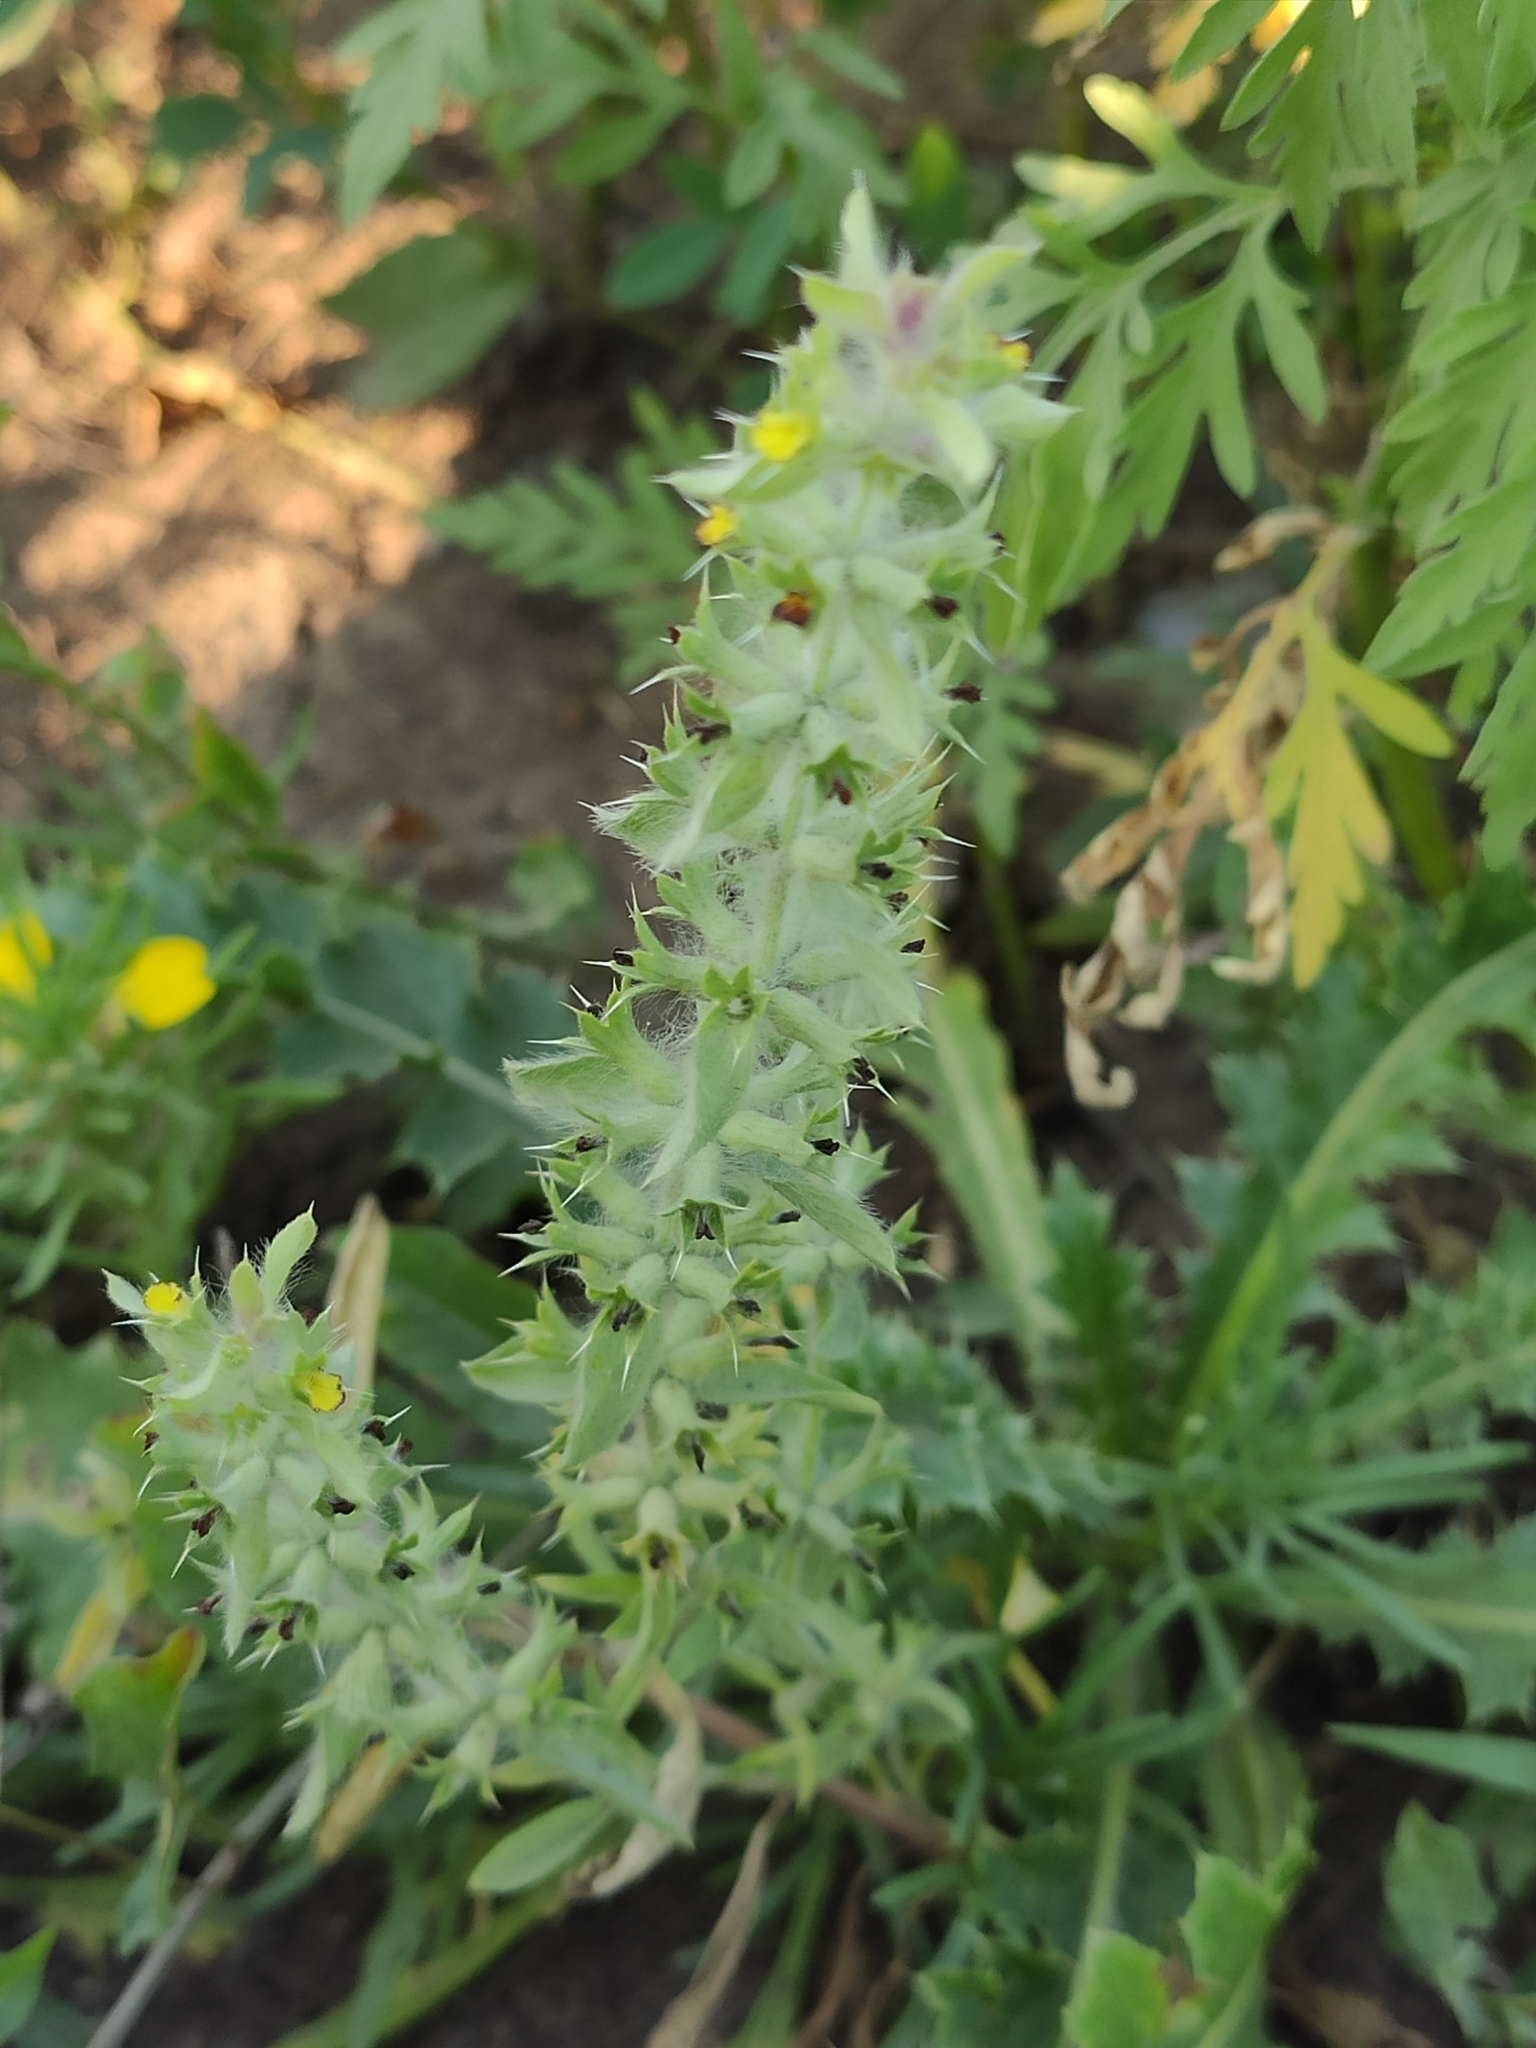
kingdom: Plantae
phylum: Tracheophyta
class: Magnoliopsida
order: Lamiales
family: Lamiaceae
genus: Sideritis
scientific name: Sideritis montana
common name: Mountain ironwort
